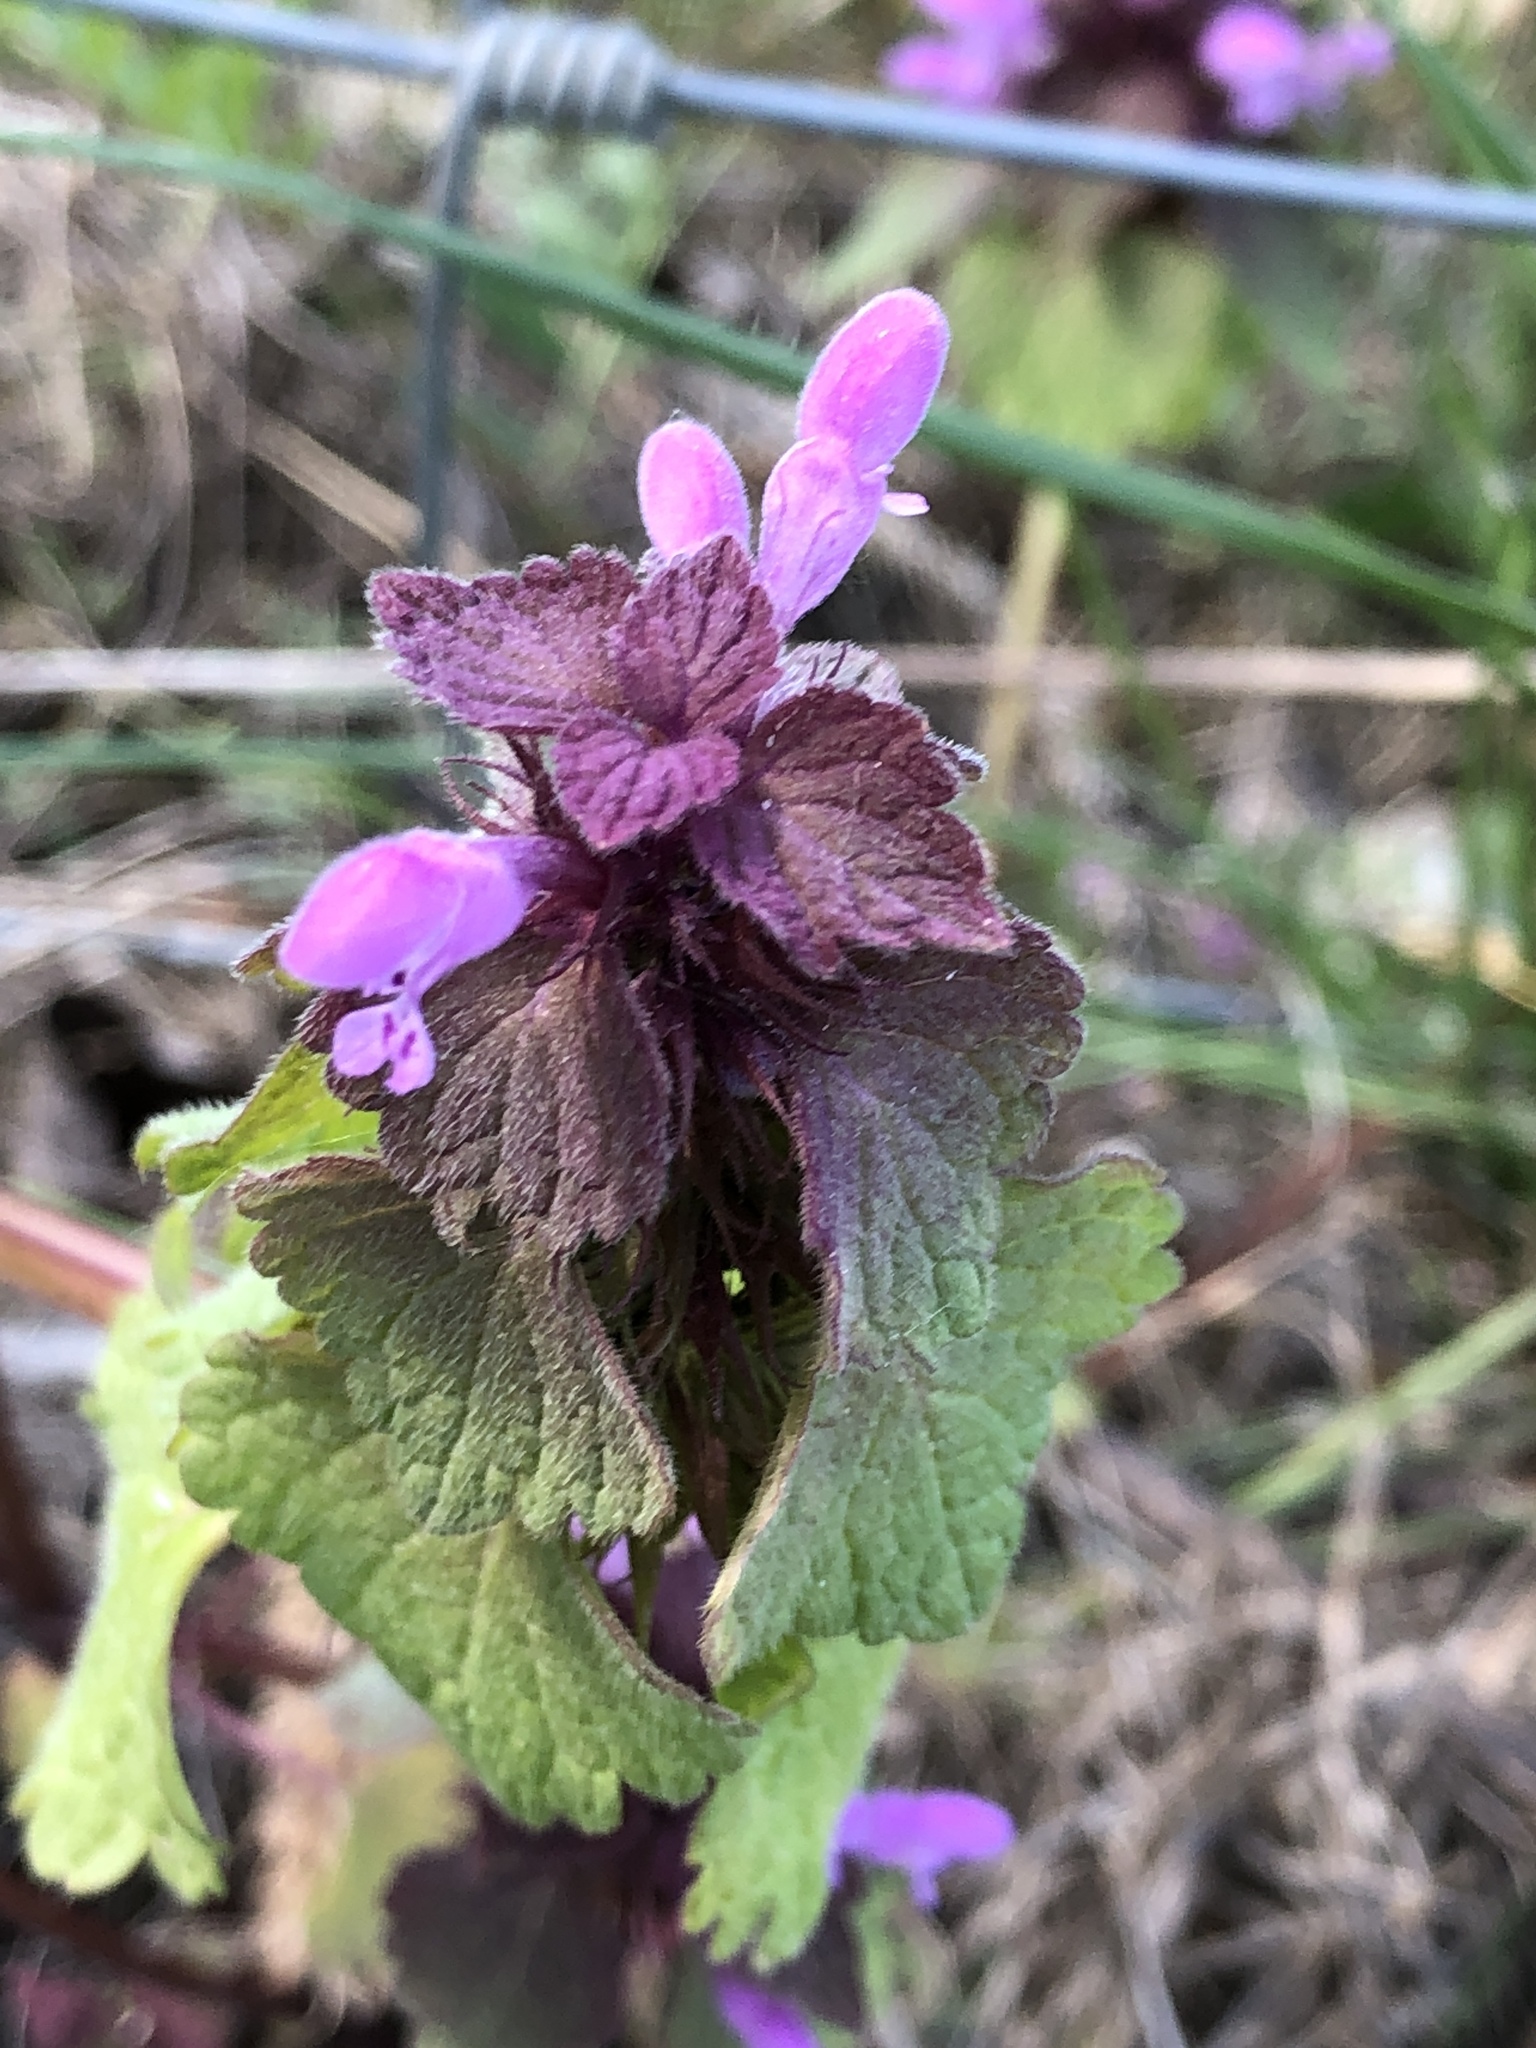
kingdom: Plantae
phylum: Tracheophyta
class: Magnoliopsida
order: Lamiales
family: Lamiaceae
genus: Lamium
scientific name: Lamium purpureum
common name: Red dead-nettle
